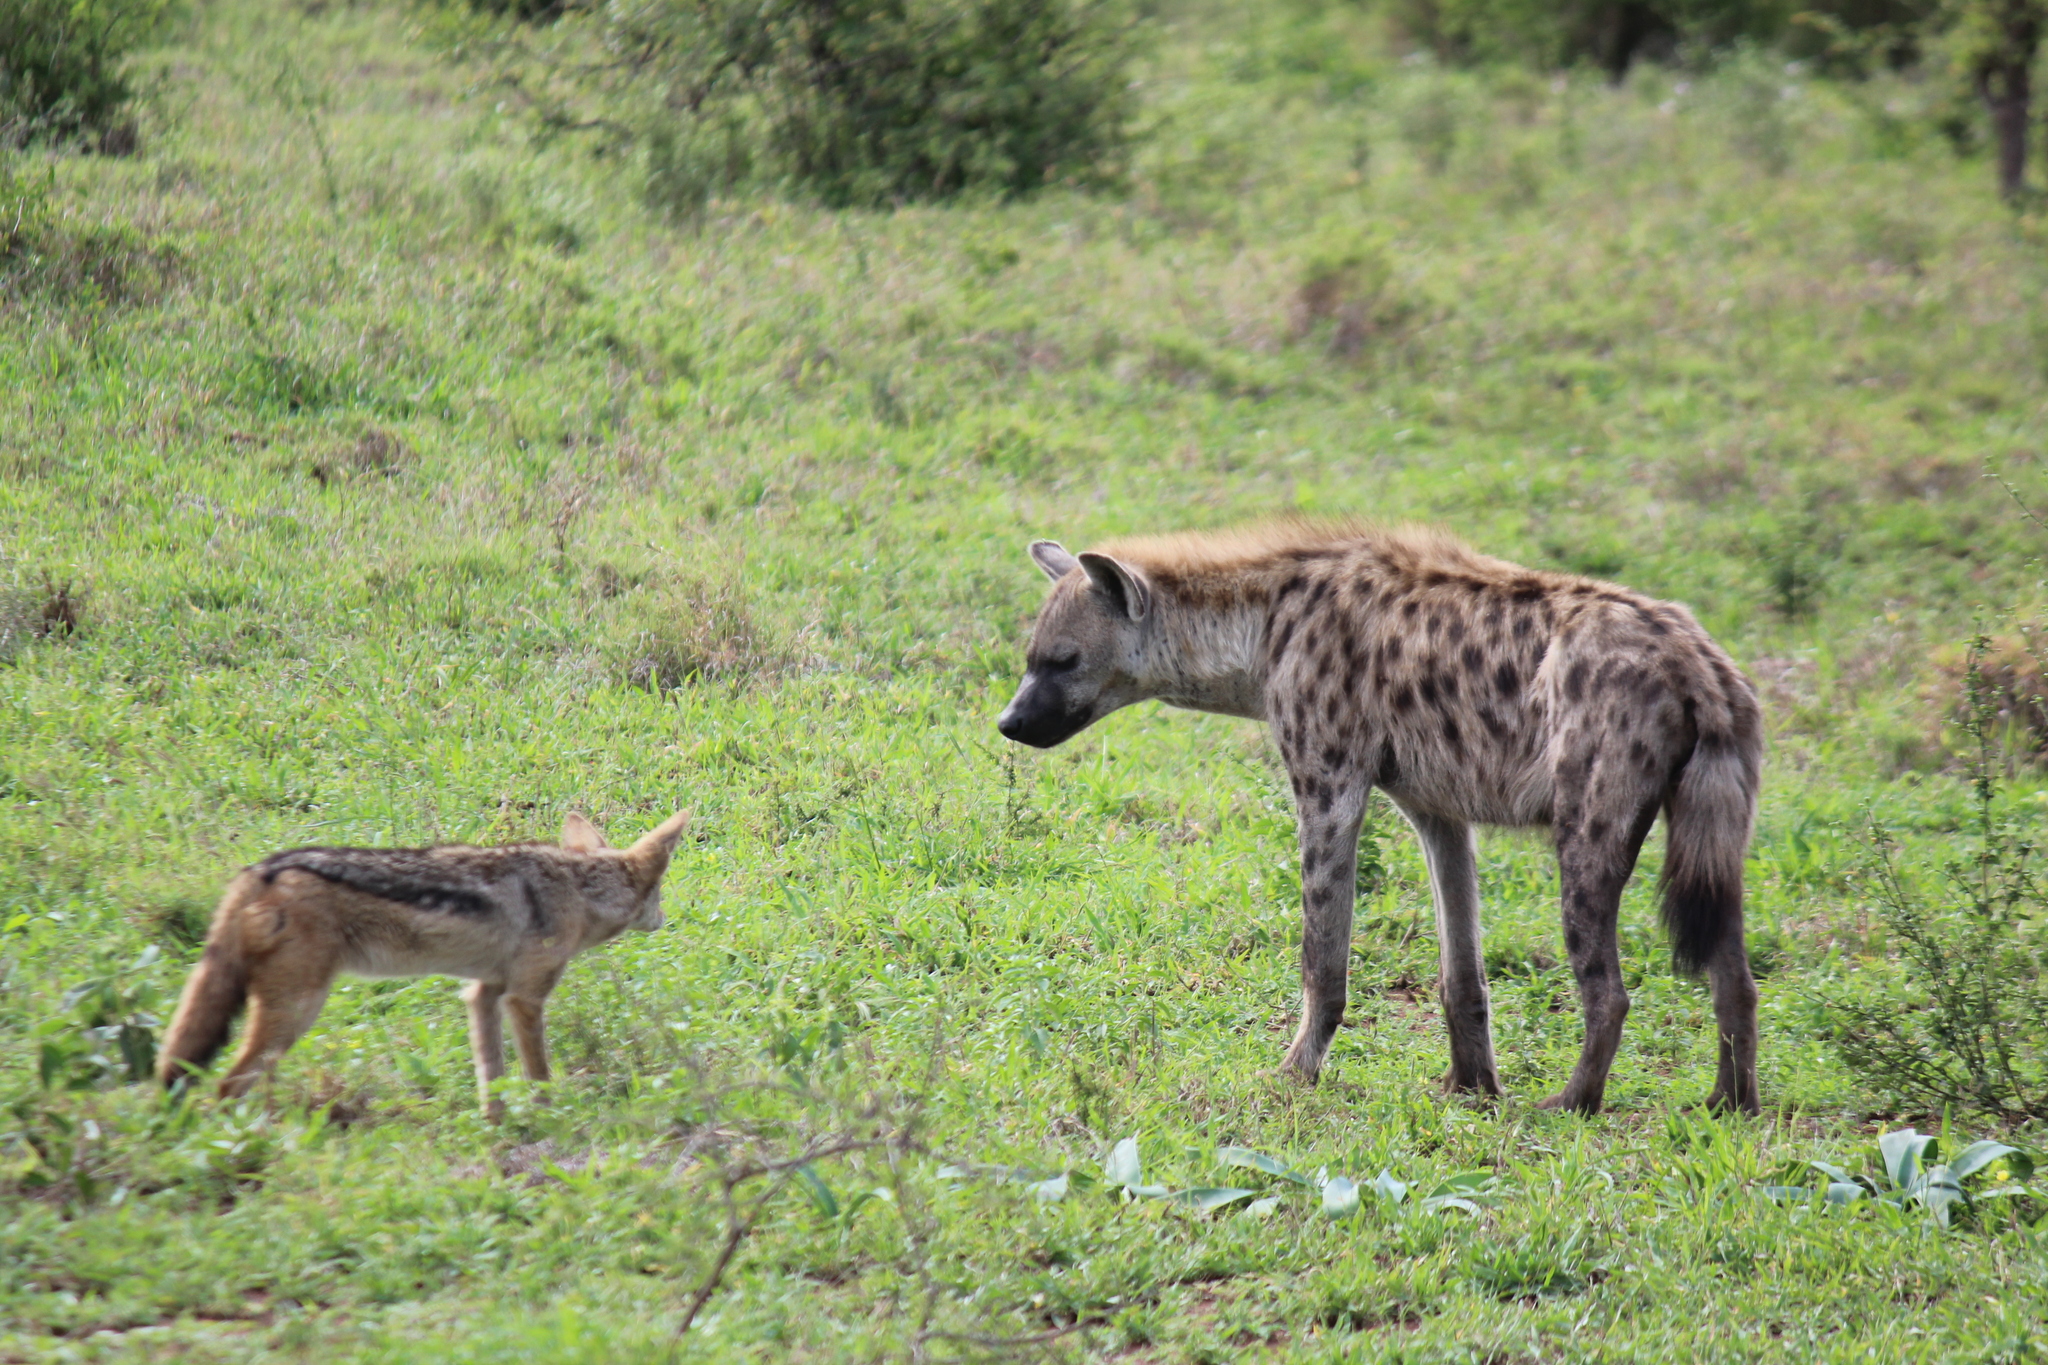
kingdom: Animalia
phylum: Chordata
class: Mammalia
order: Carnivora
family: Hyaenidae
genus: Crocuta
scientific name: Crocuta crocuta
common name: Spotted hyaena
